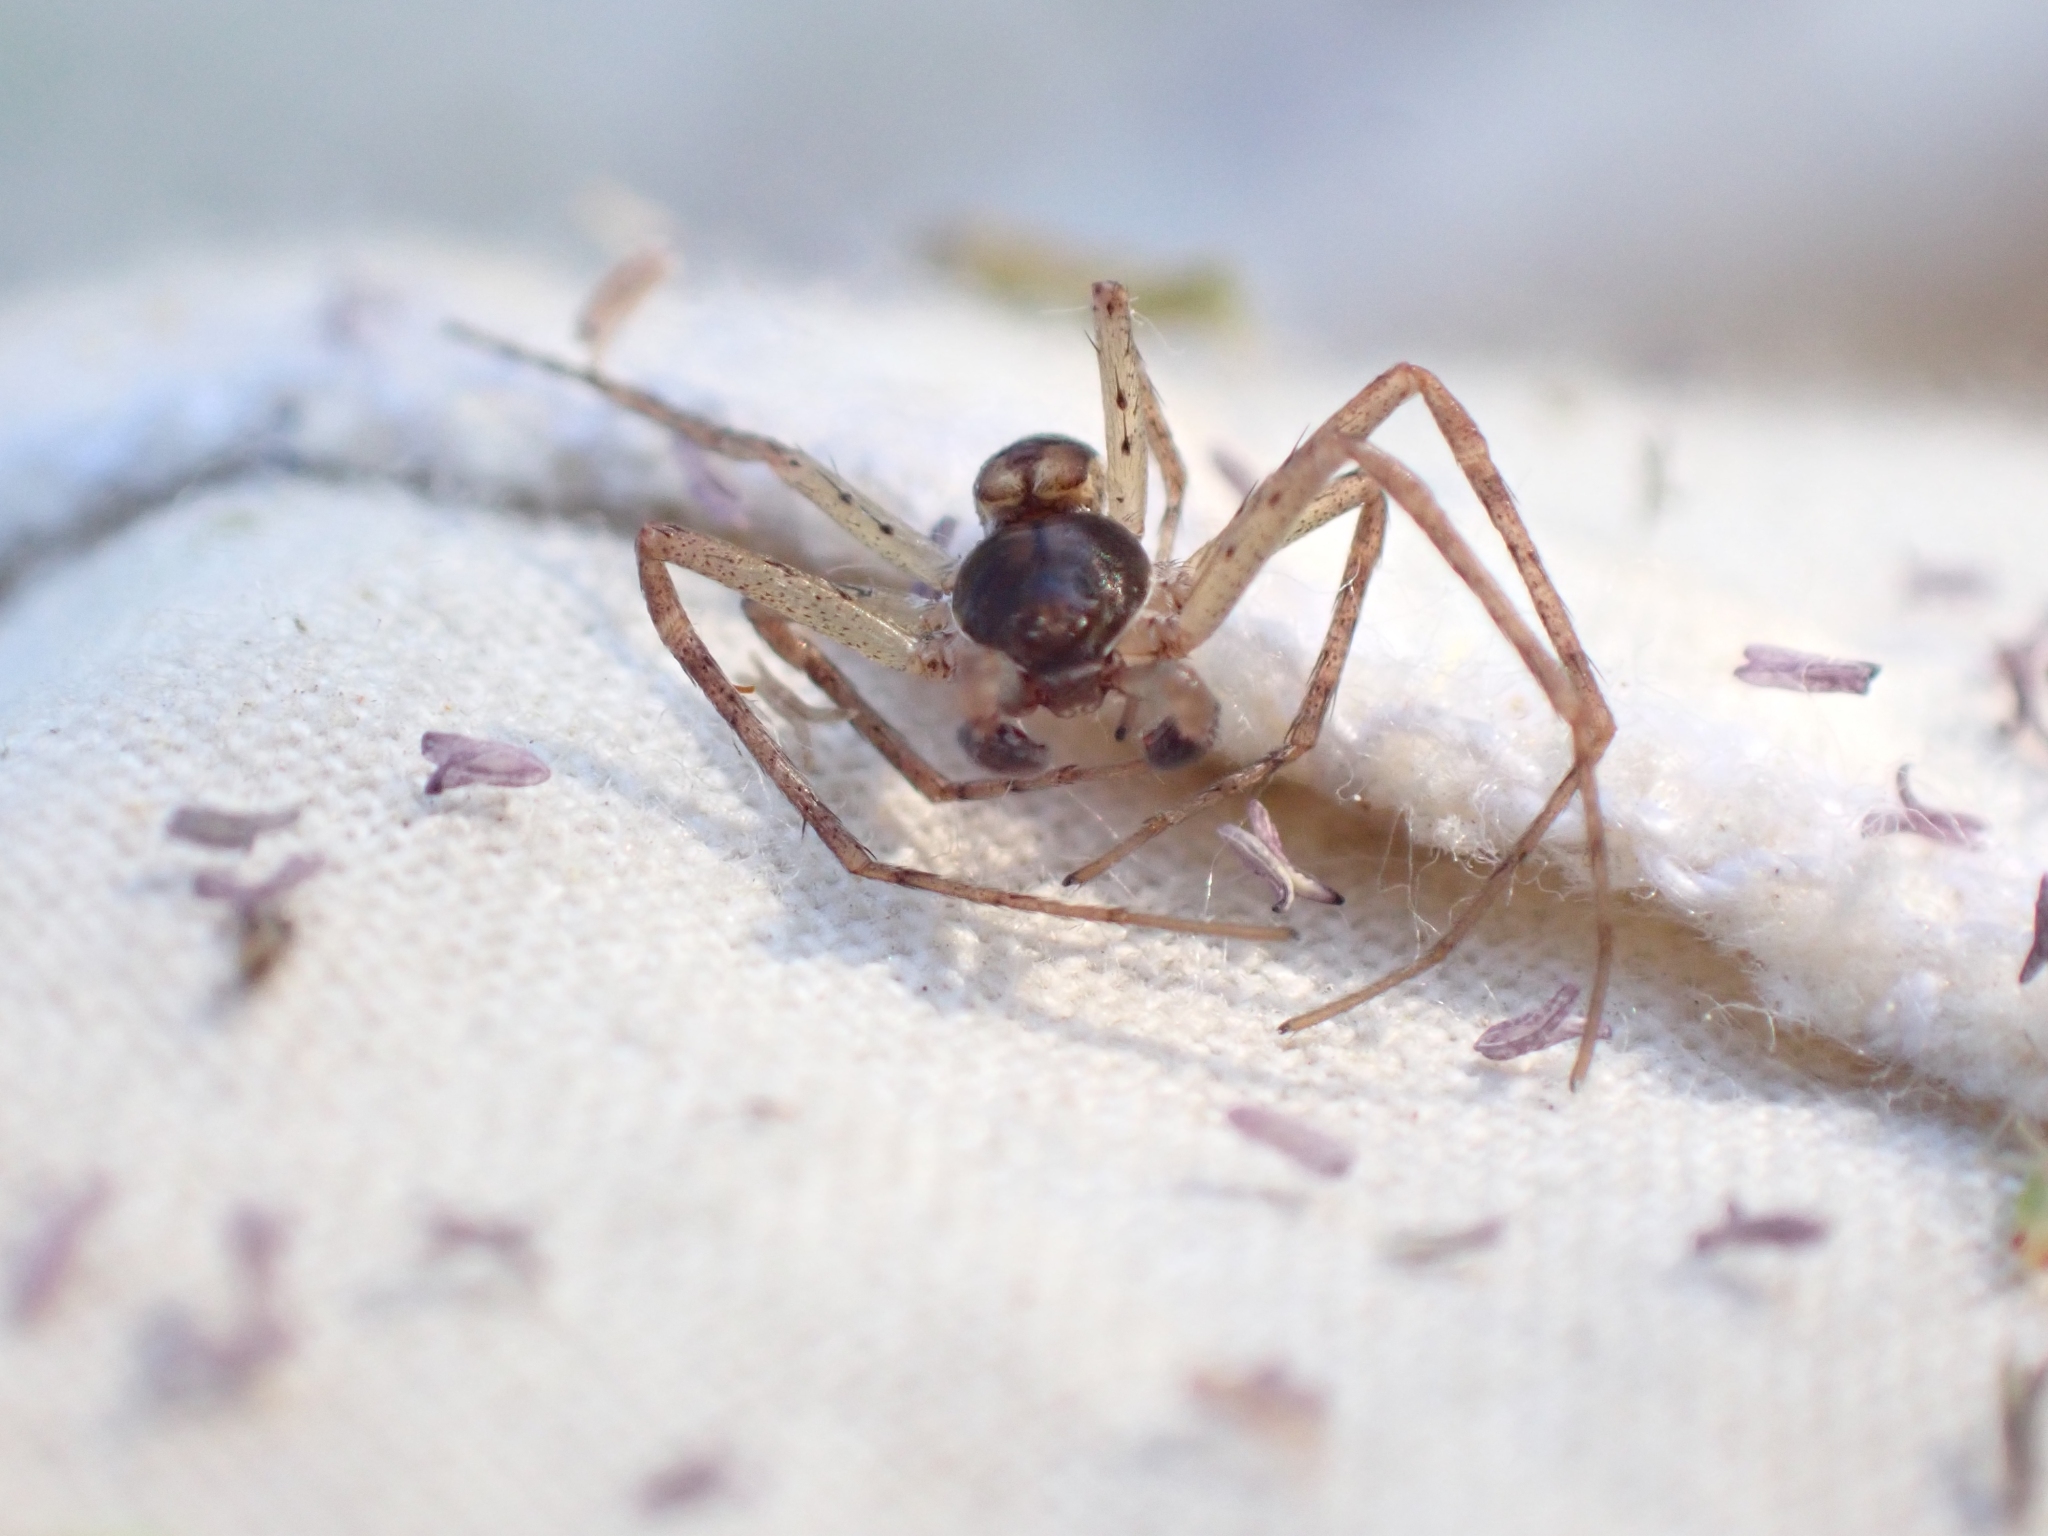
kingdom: Animalia
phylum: Arthropoda
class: Arachnida
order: Araneae
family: Philodromidae
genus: Philodromus
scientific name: Philodromus dispar
